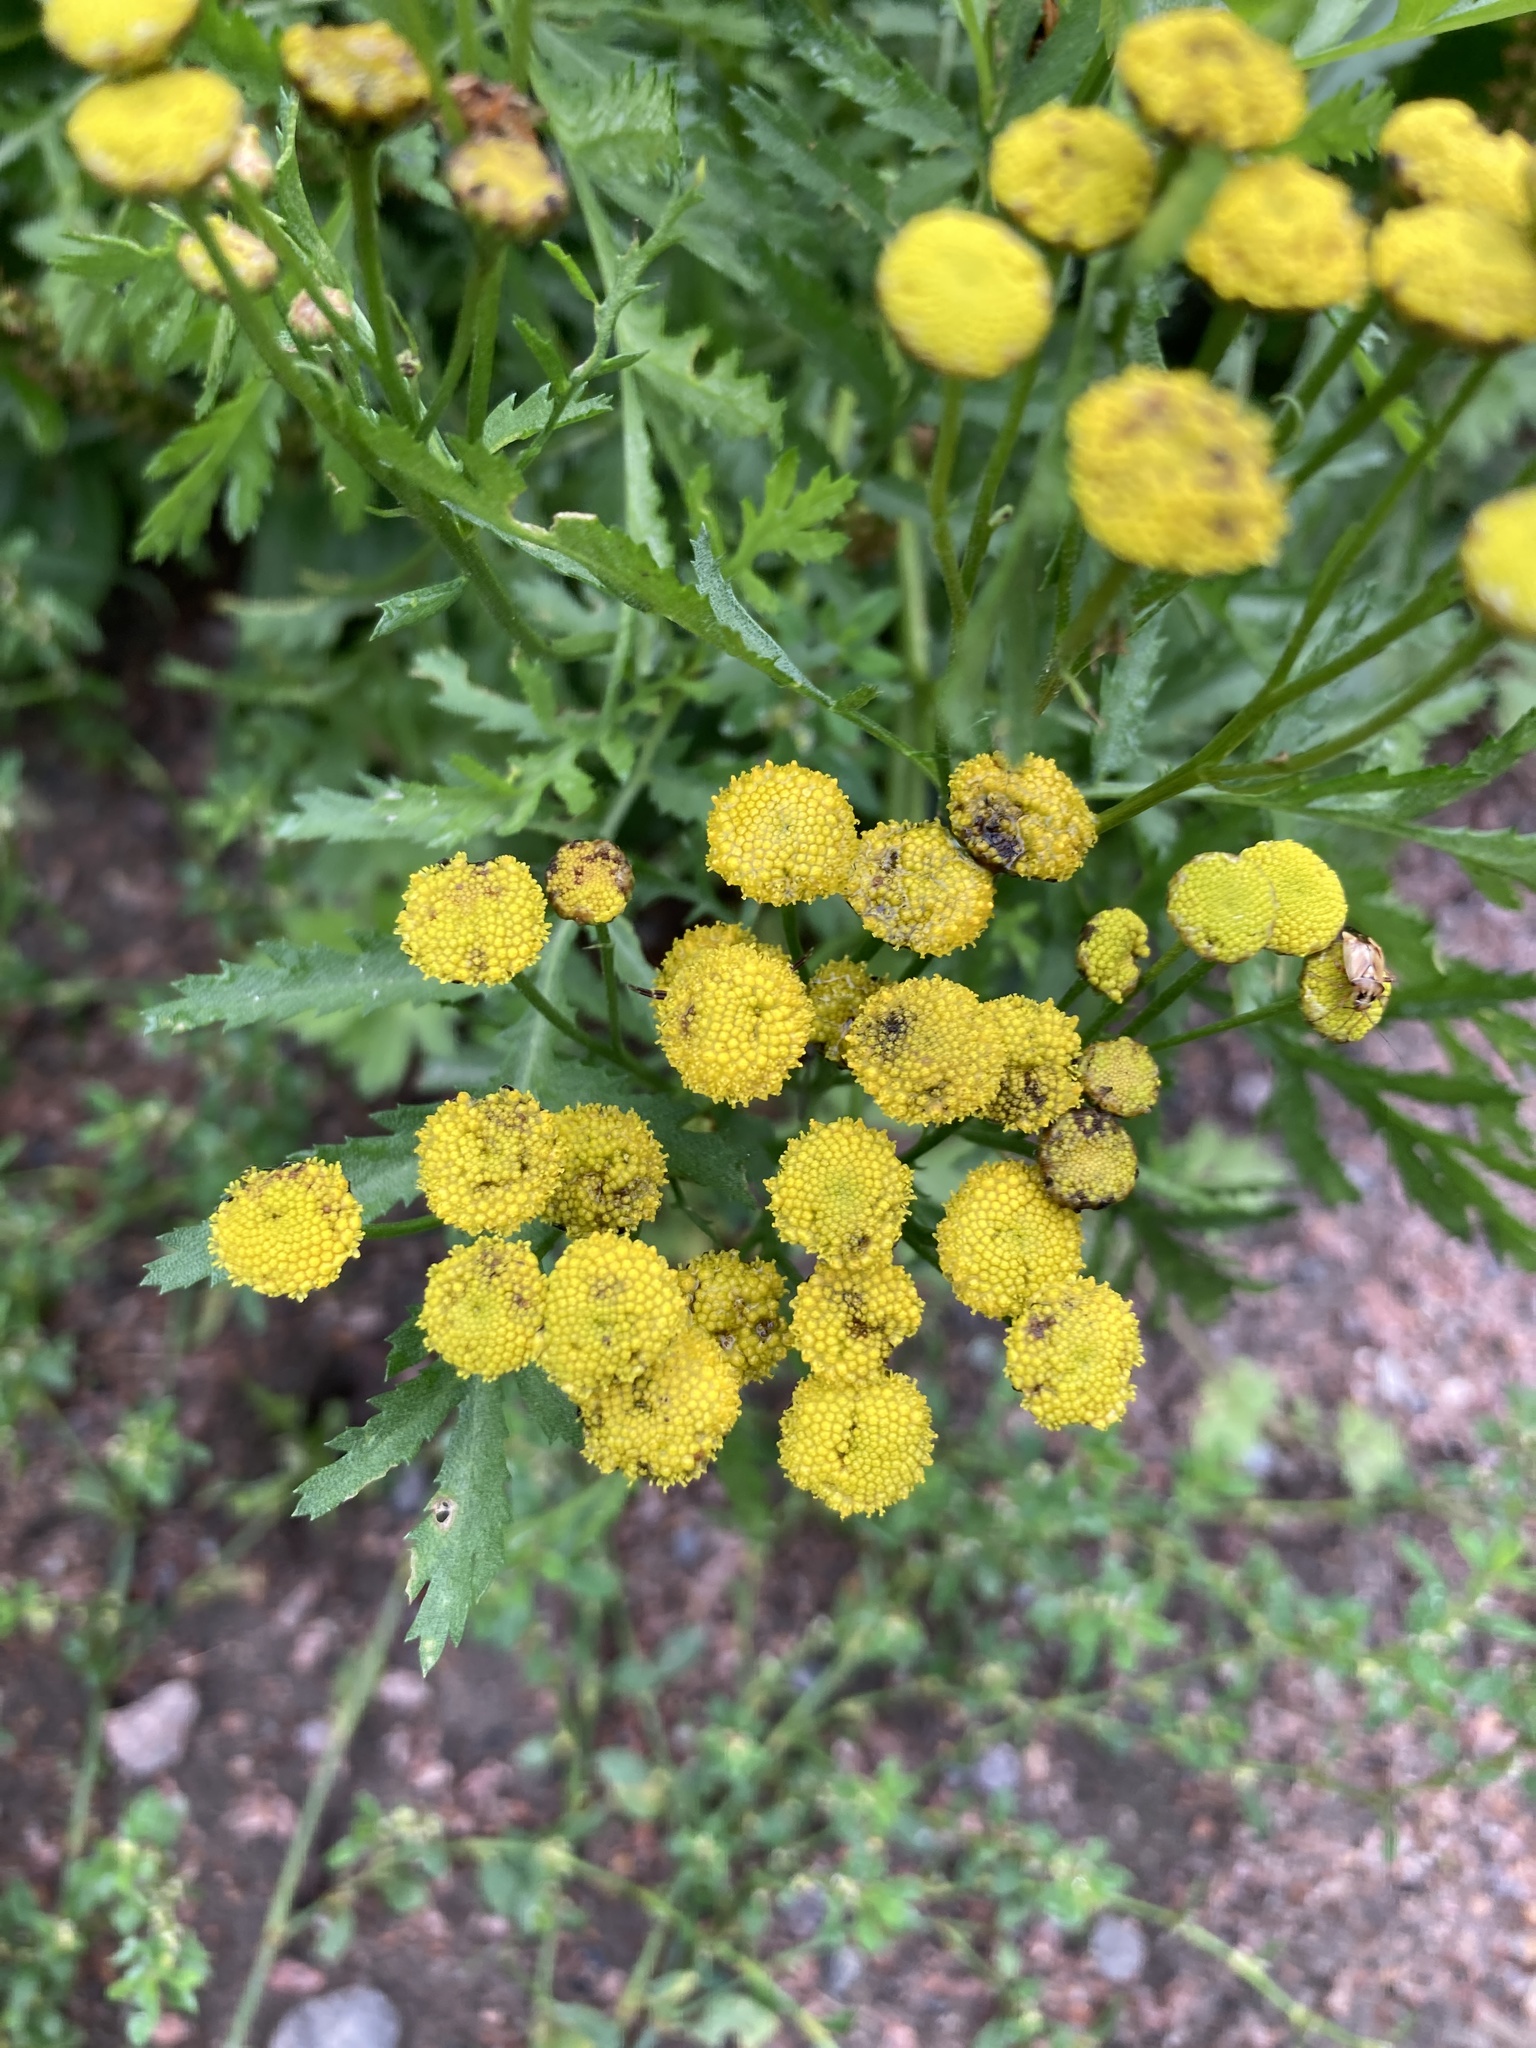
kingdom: Plantae
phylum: Tracheophyta
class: Magnoliopsida
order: Asterales
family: Asteraceae
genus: Tanacetum
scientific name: Tanacetum vulgare
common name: Common tansy
